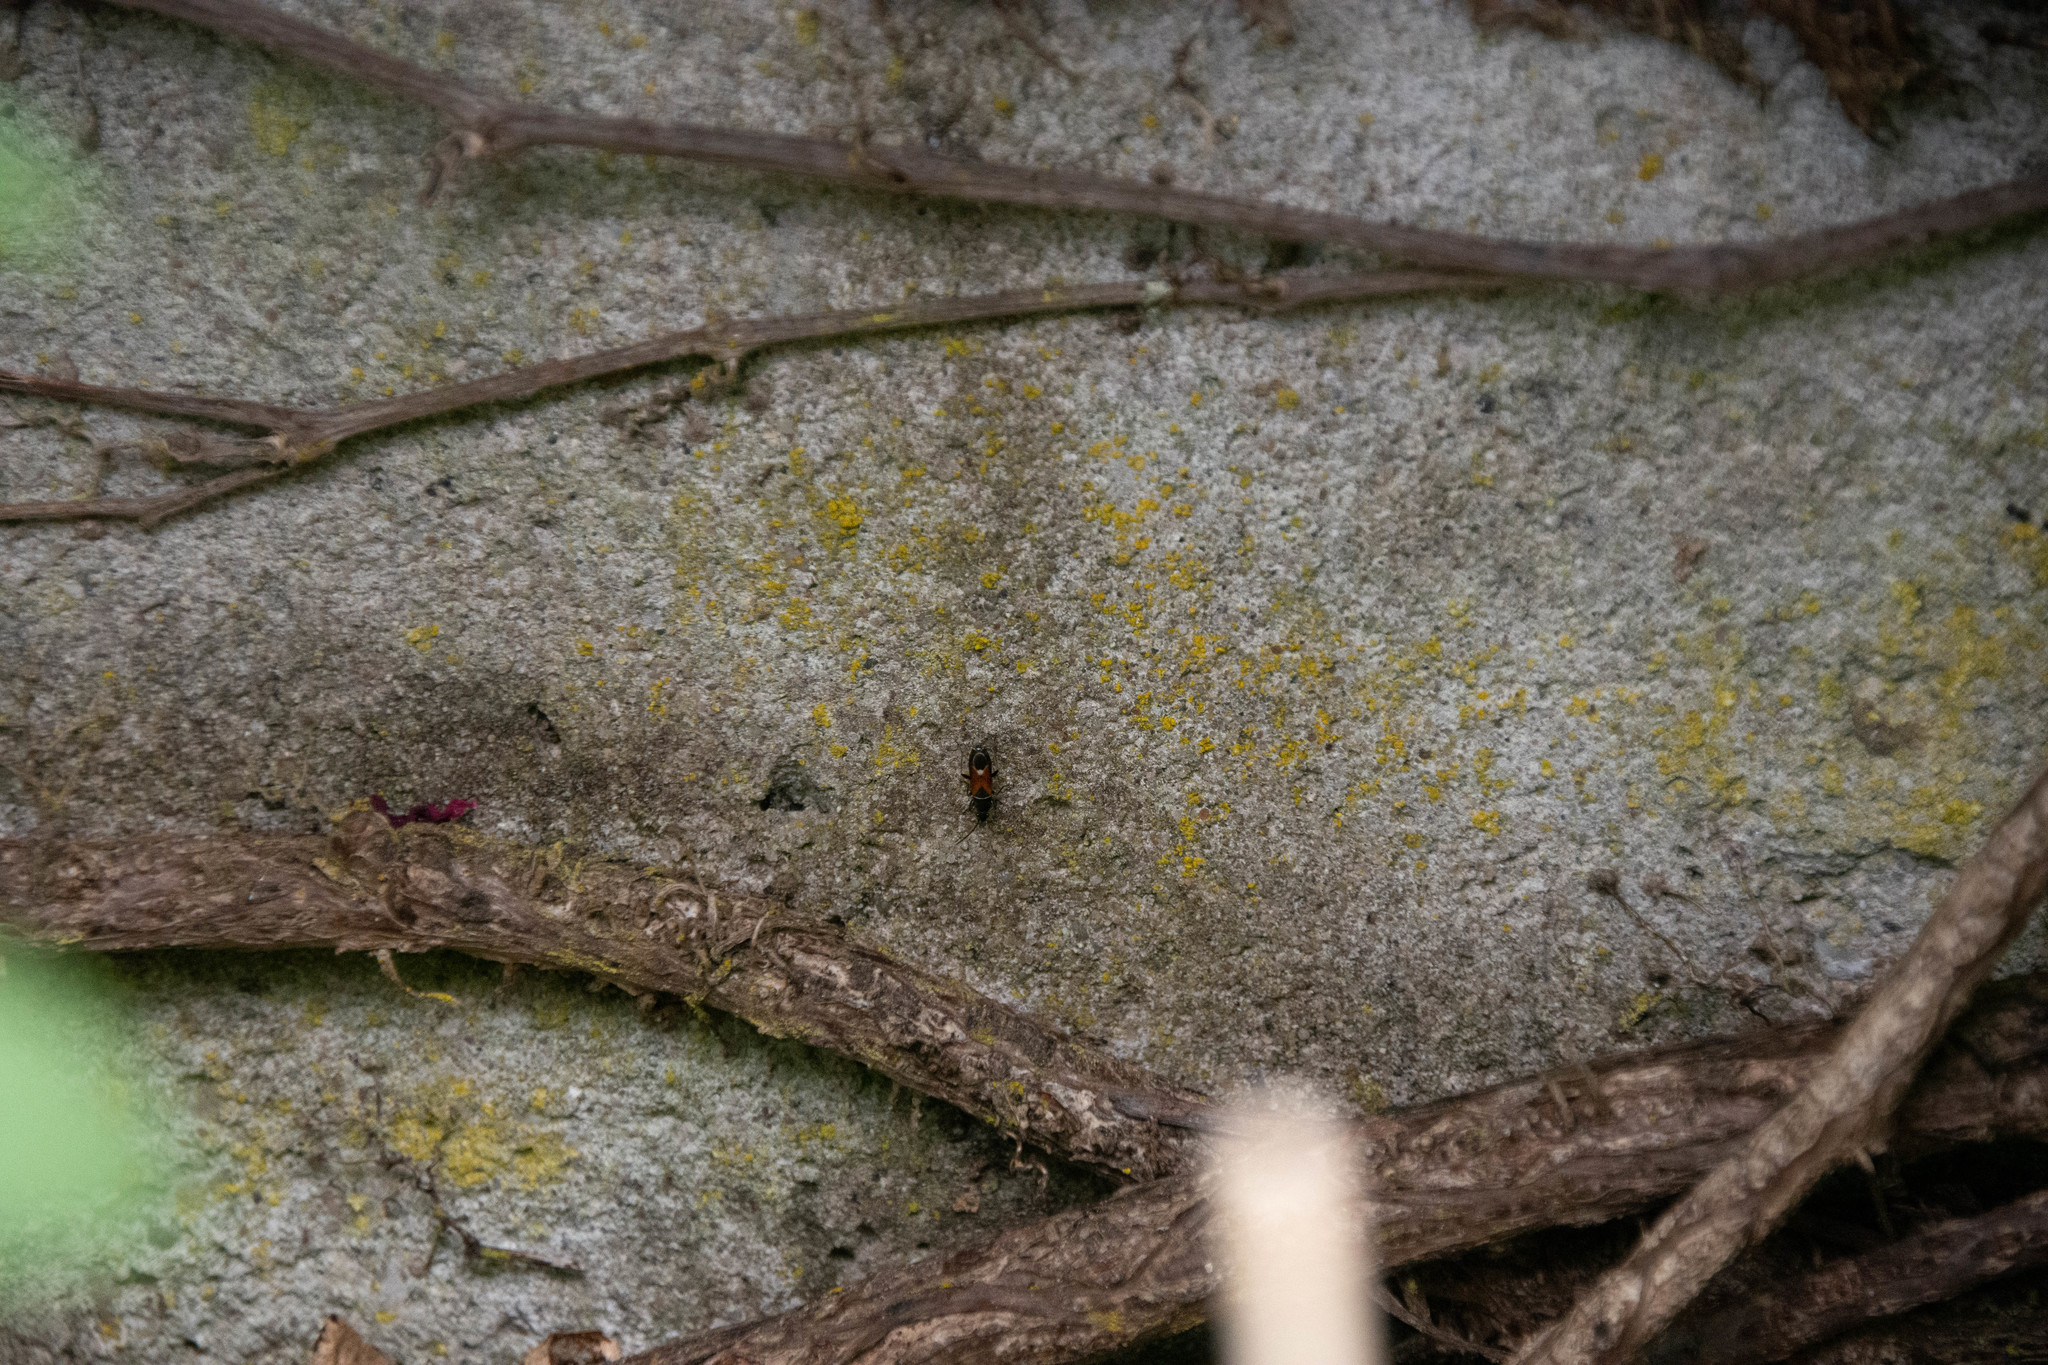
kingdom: Animalia
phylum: Arthropoda
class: Insecta
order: Hemiptera
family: Rhyparochromidae
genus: Pterotmetus
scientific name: Pterotmetus staphyliniformis
